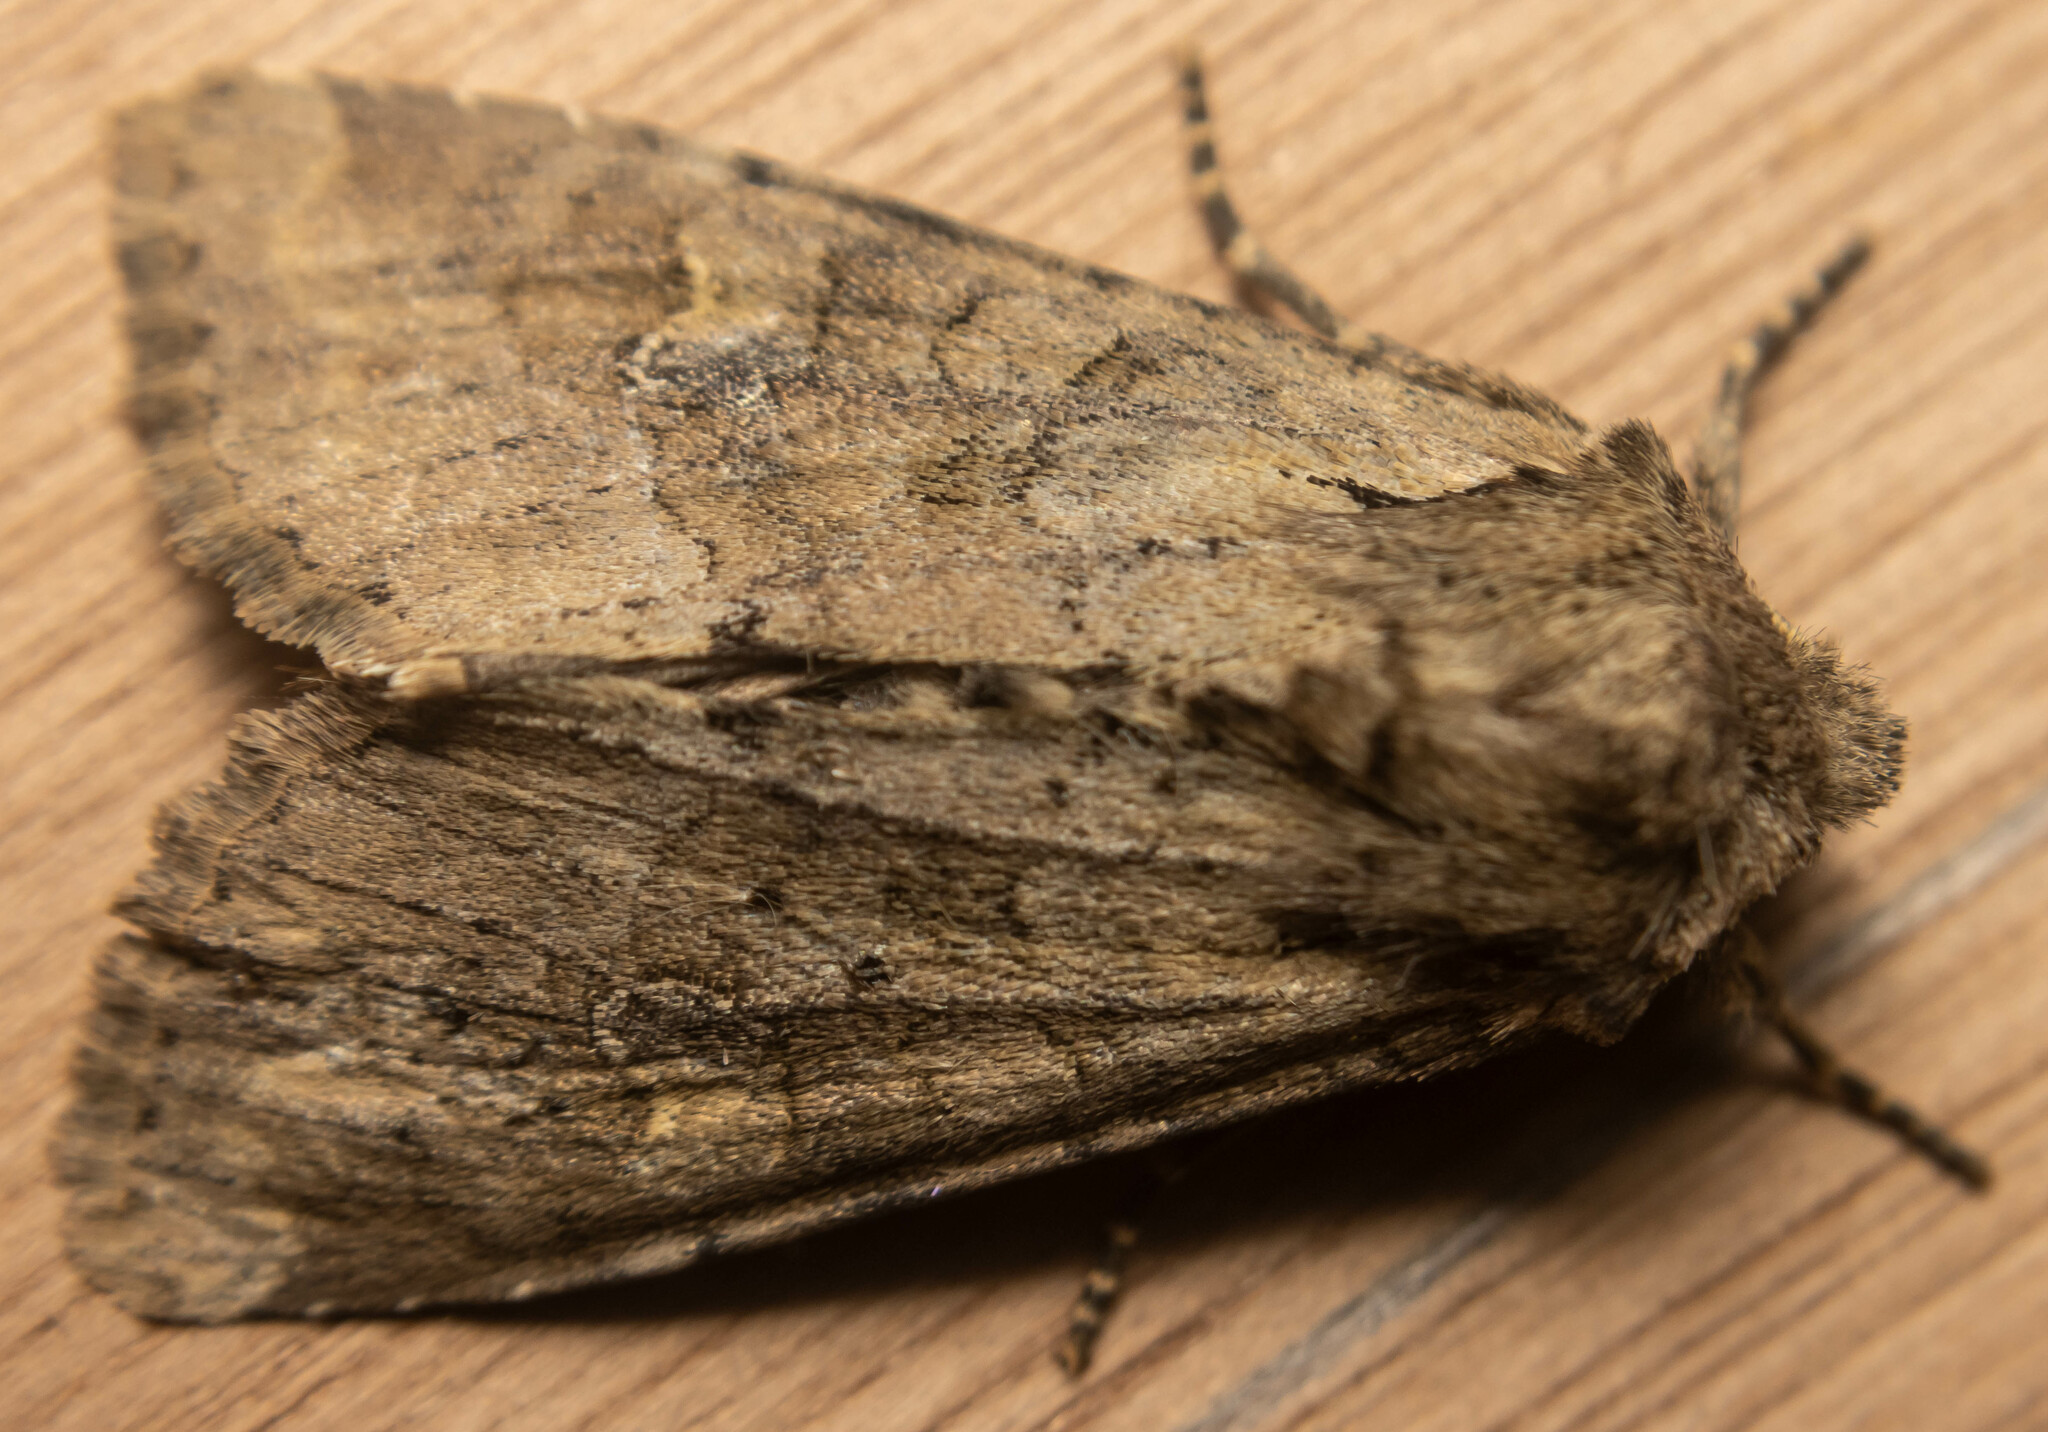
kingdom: Animalia
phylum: Arthropoda
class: Insecta
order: Lepidoptera
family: Noctuidae
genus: Apamea
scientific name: Apamea sordens
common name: Rustic shoulder-knot
